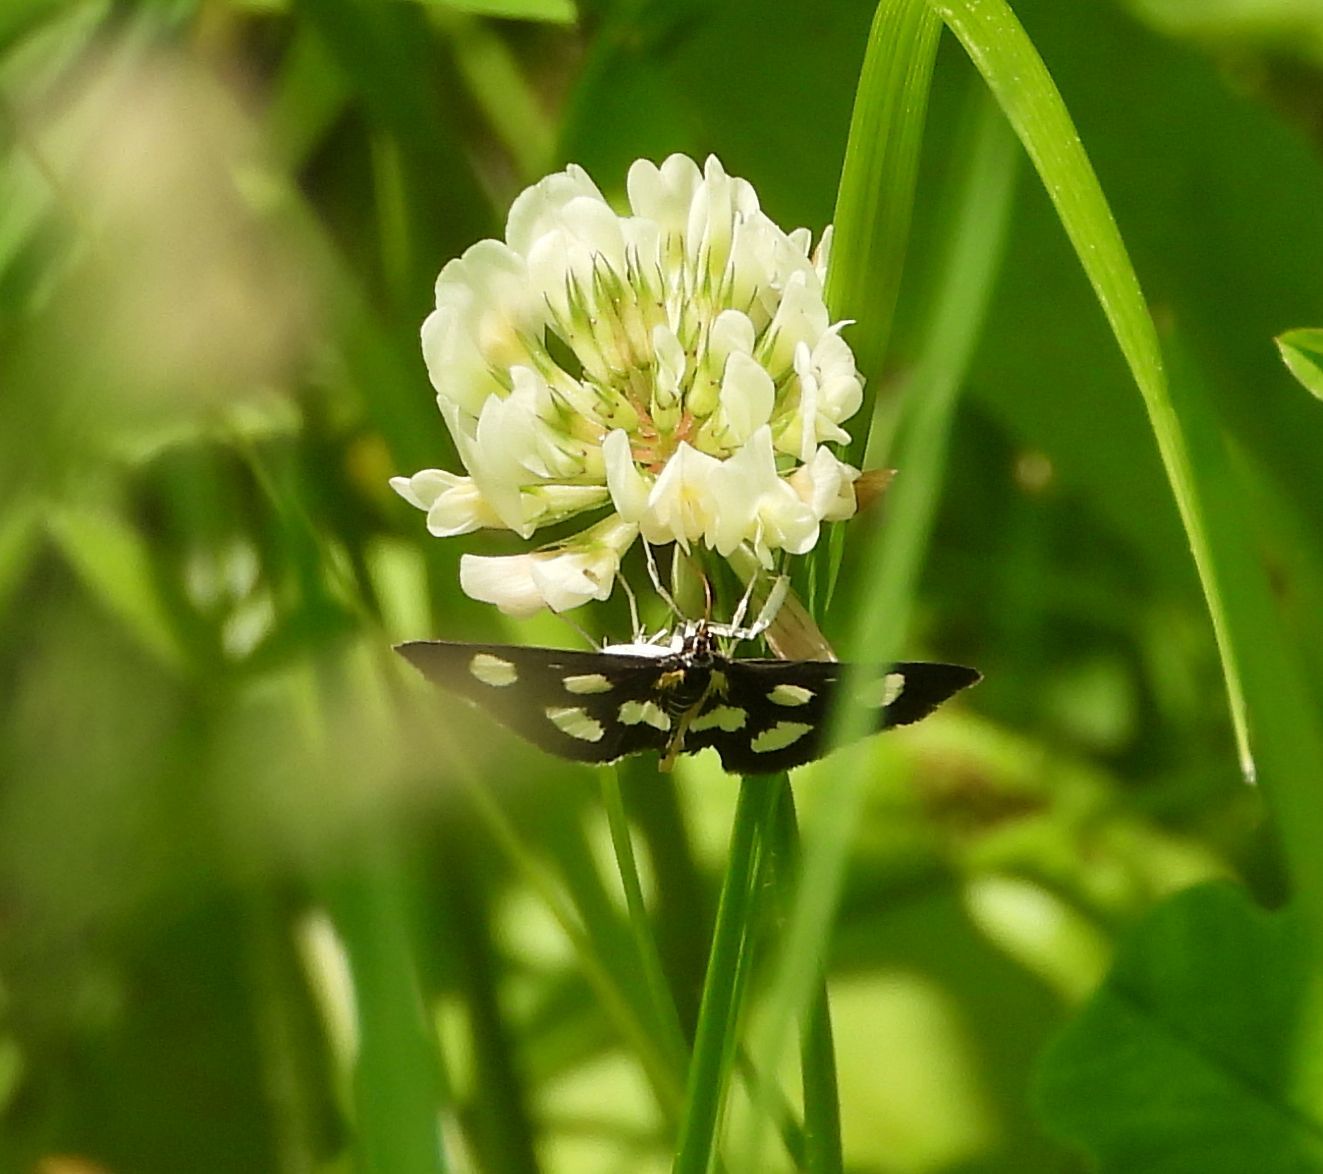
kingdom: Animalia
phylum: Arthropoda
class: Insecta
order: Lepidoptera
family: Crambidae
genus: Anania
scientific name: Anania funebris
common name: White-spotted sable moth
